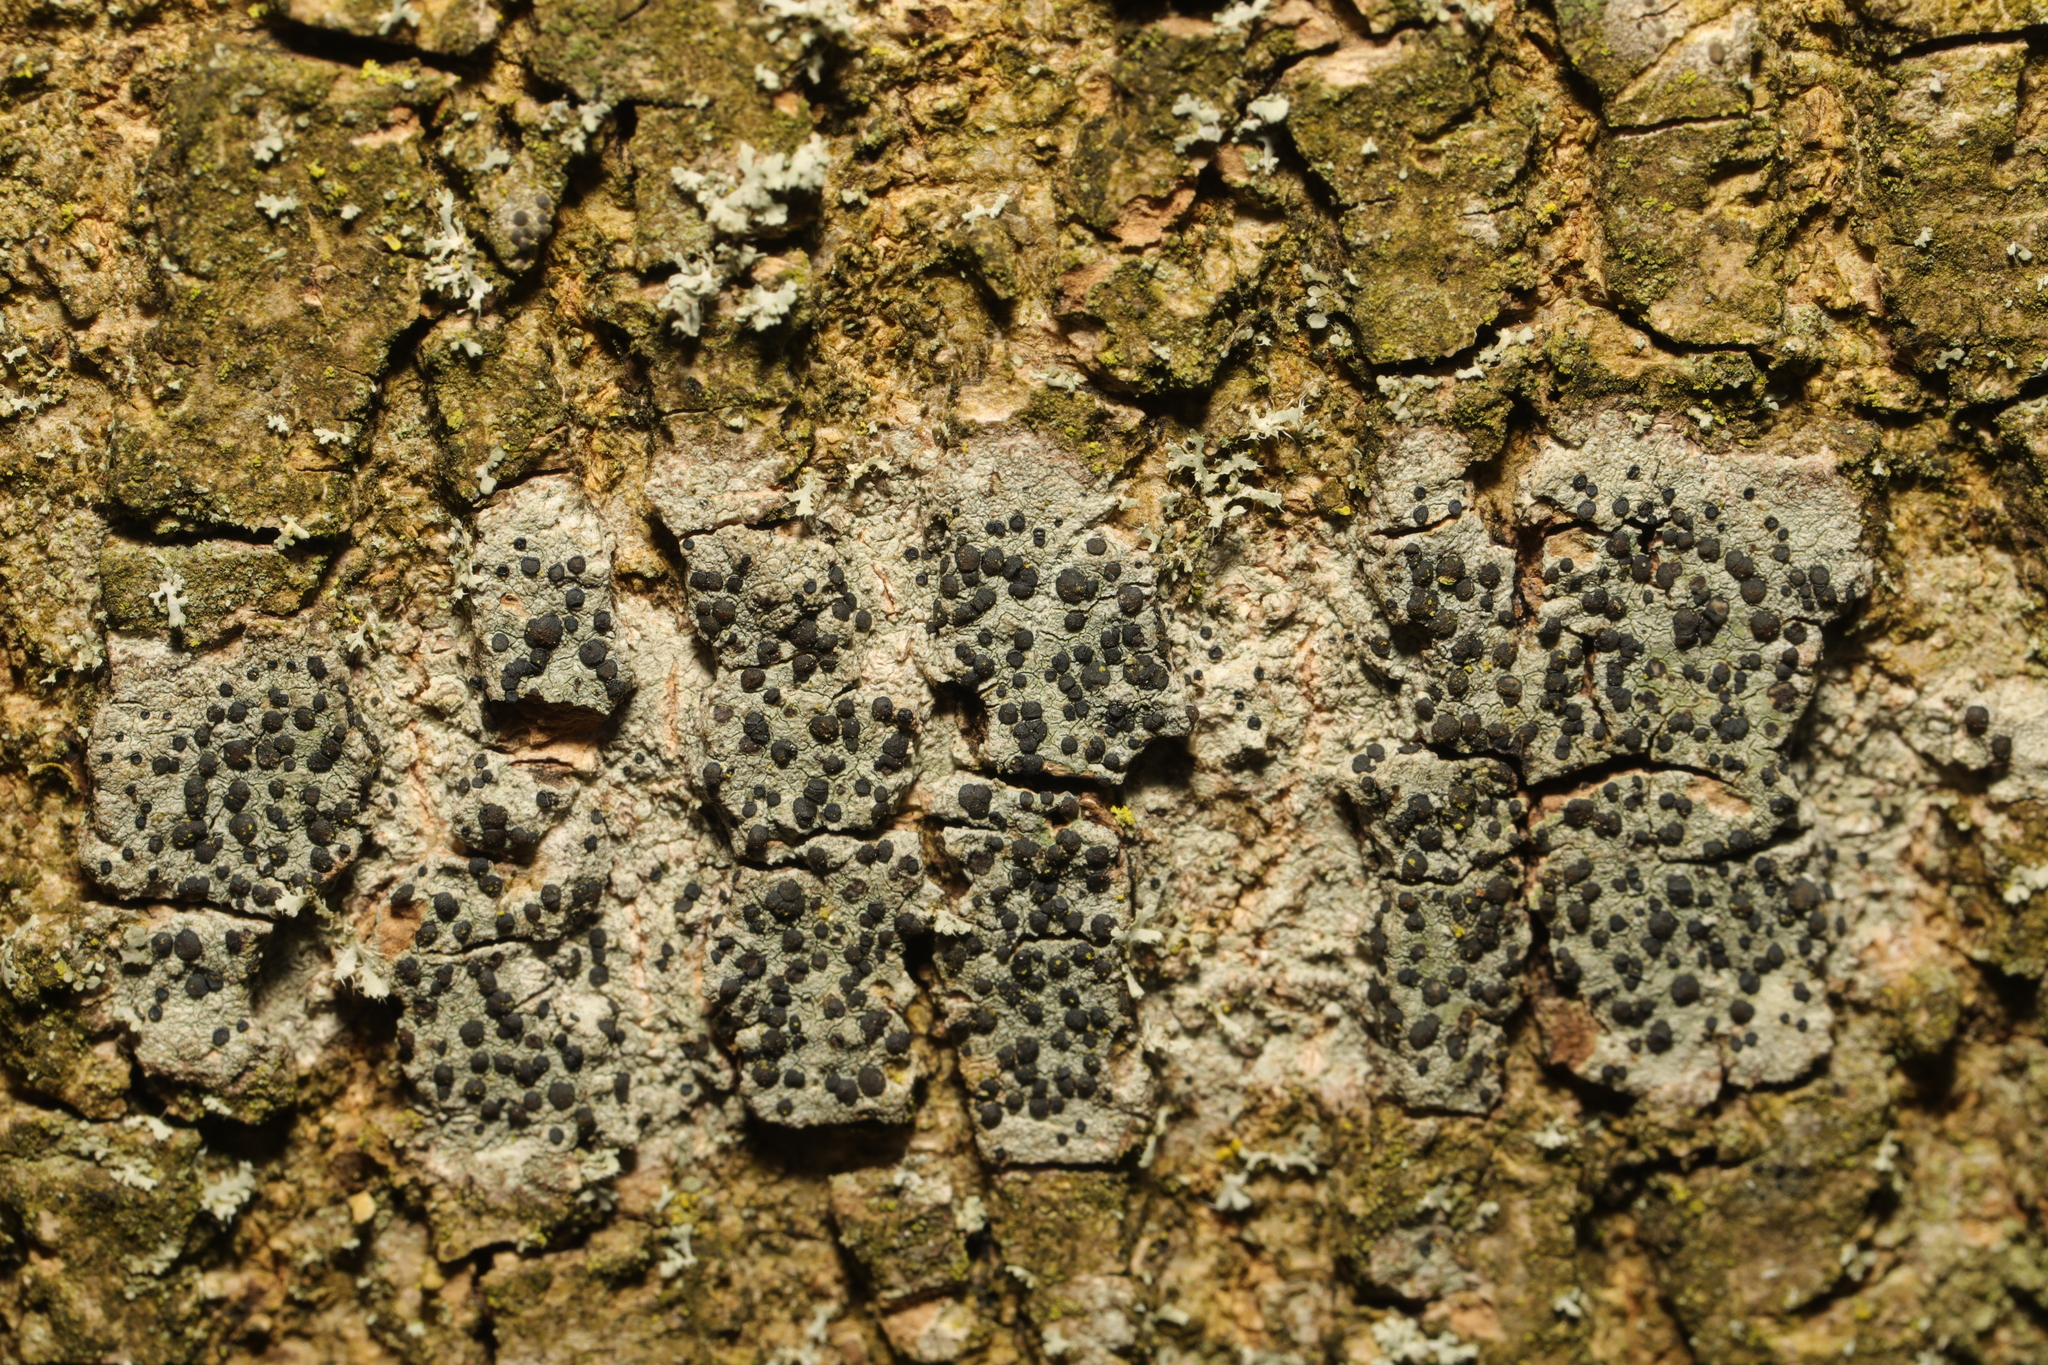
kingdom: Fungi
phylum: Ascomycota
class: Lecanoromycetes
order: Lecanorales
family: Lecanoraceae
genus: Lecidella
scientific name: Lecidella elaeochroma
